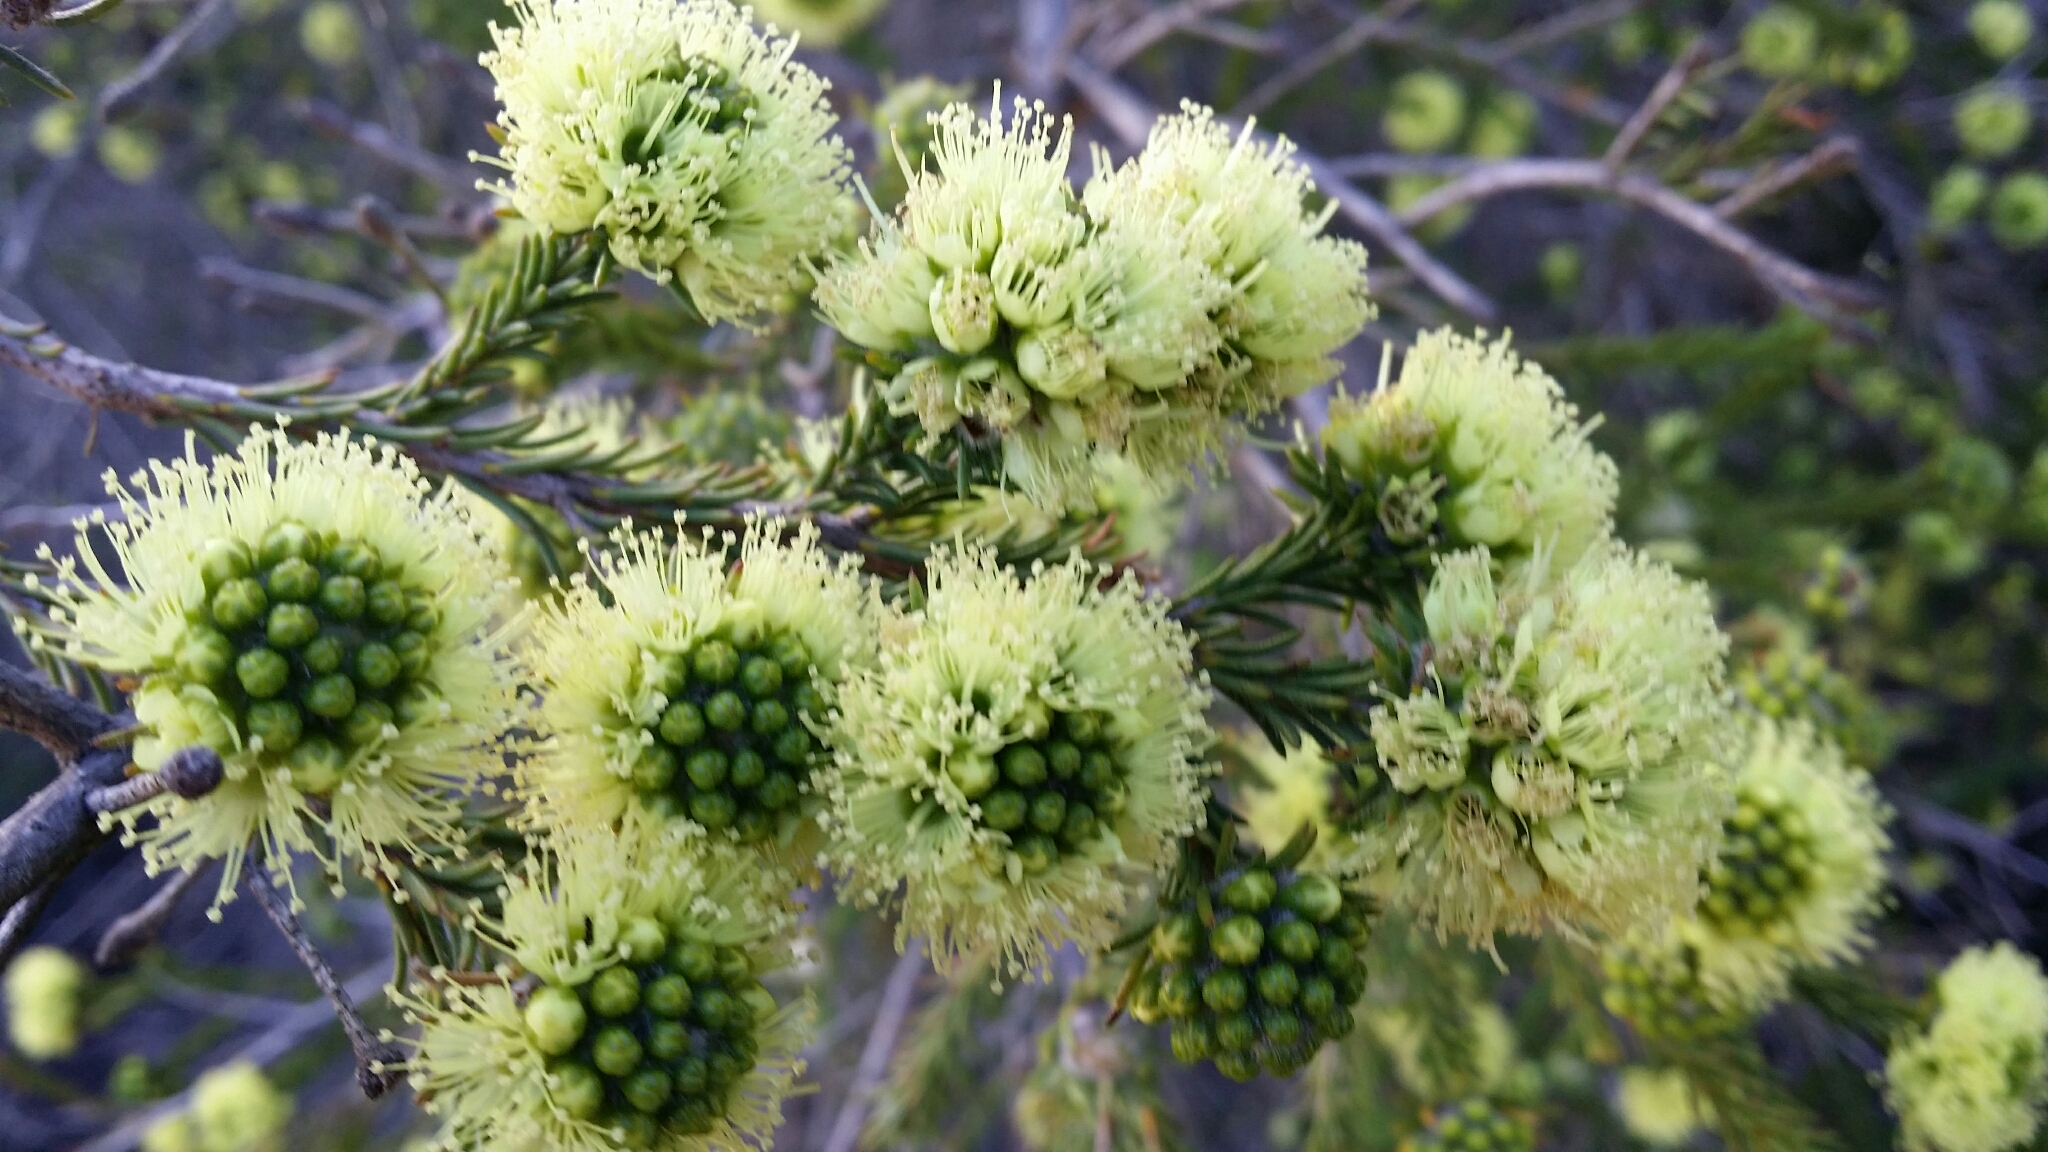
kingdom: Plantae
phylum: Tracheophyta
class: Magnoliopsida
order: Myrtales
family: Myrtaceae
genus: Kunzea
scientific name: Kunzea ericifolia
